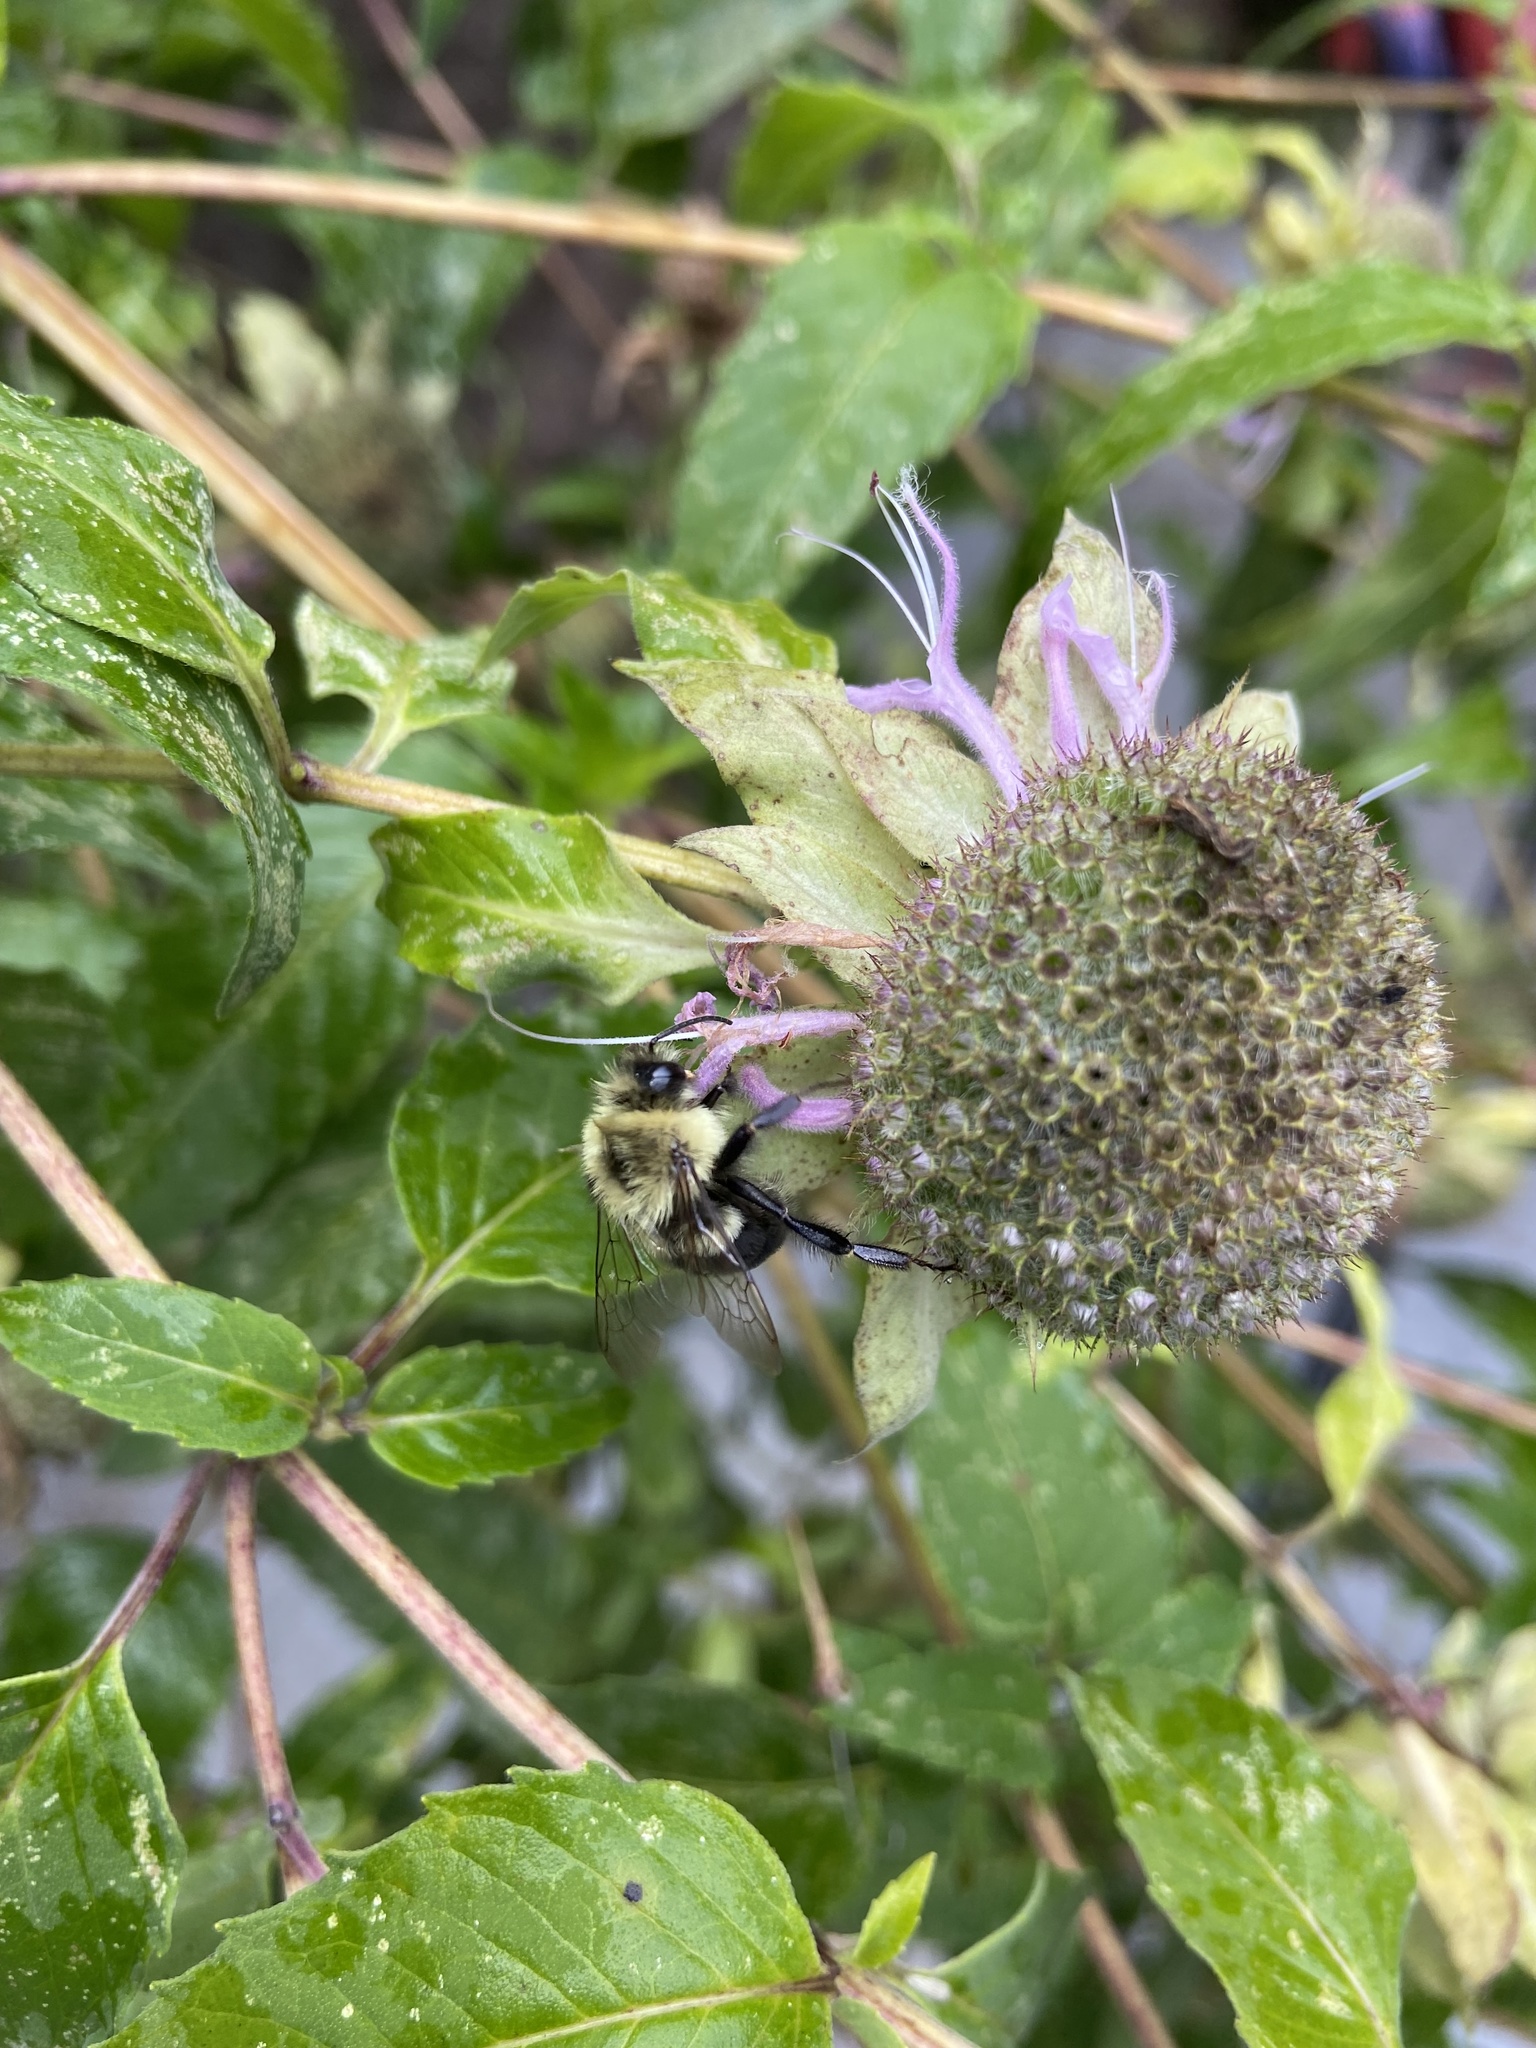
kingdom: Animalia
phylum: Arthropoda
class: Insecta
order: Hymenoptera
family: Apidae
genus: Bombus
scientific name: Bombus impatiens
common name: Common eastern bumble bee
